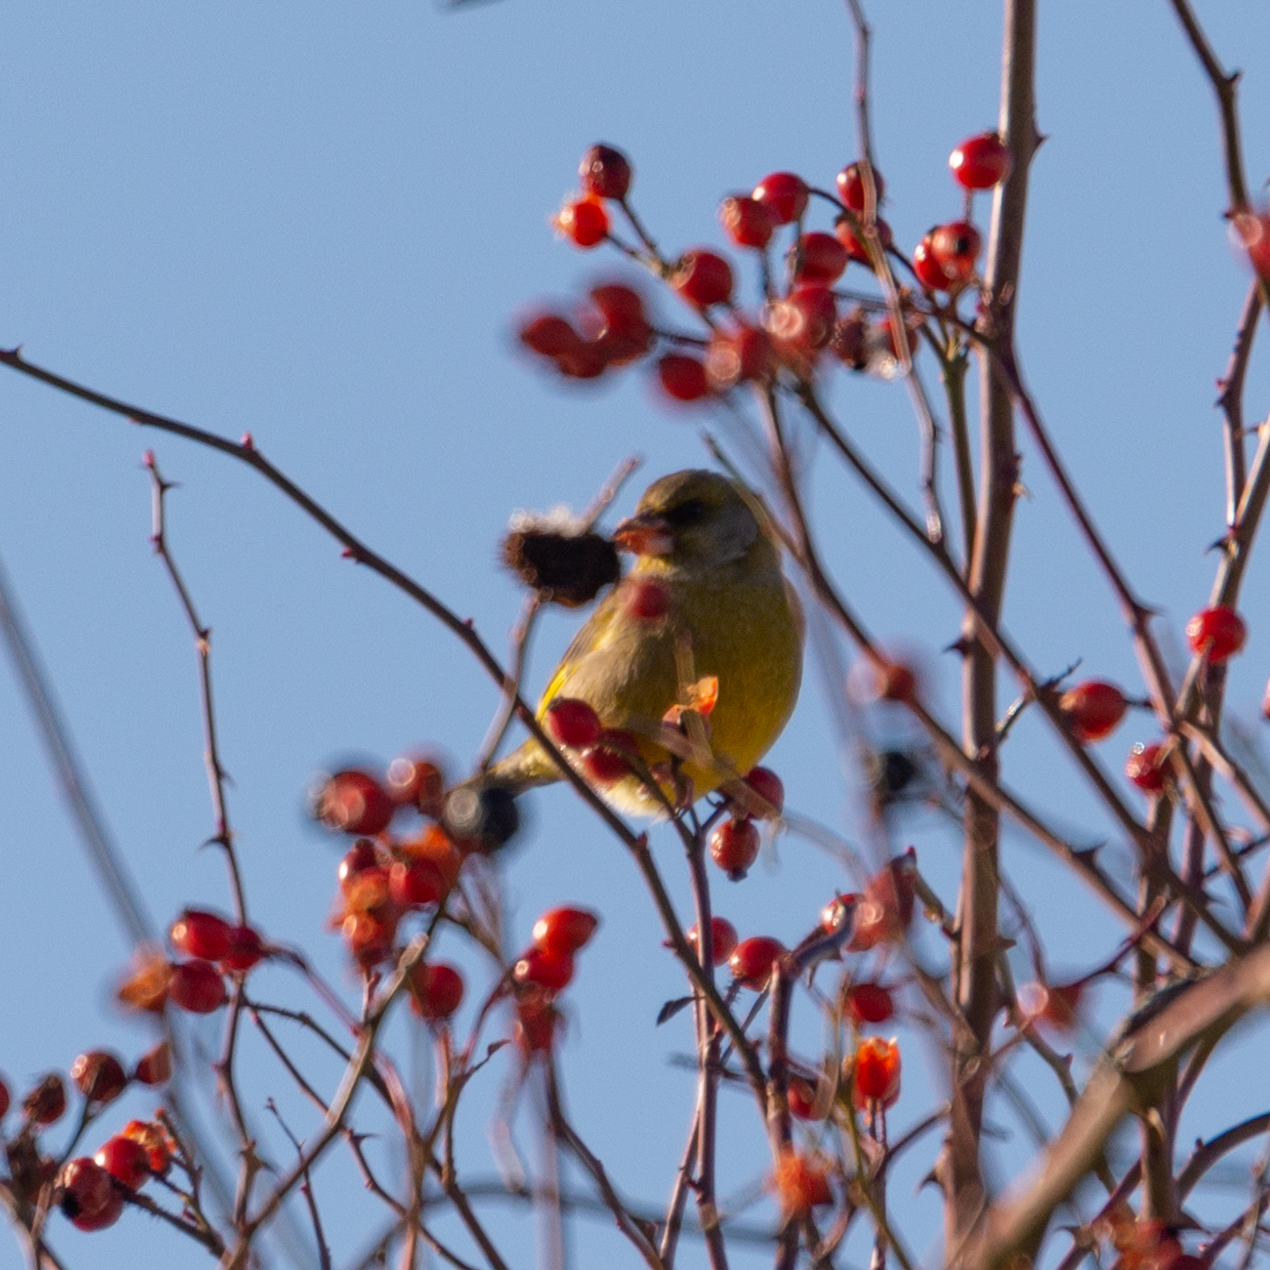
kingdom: Plantae
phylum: Tracheophyta
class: Liliopsida
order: Poales
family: Poaceae
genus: Chloris
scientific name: Chloris chloris
